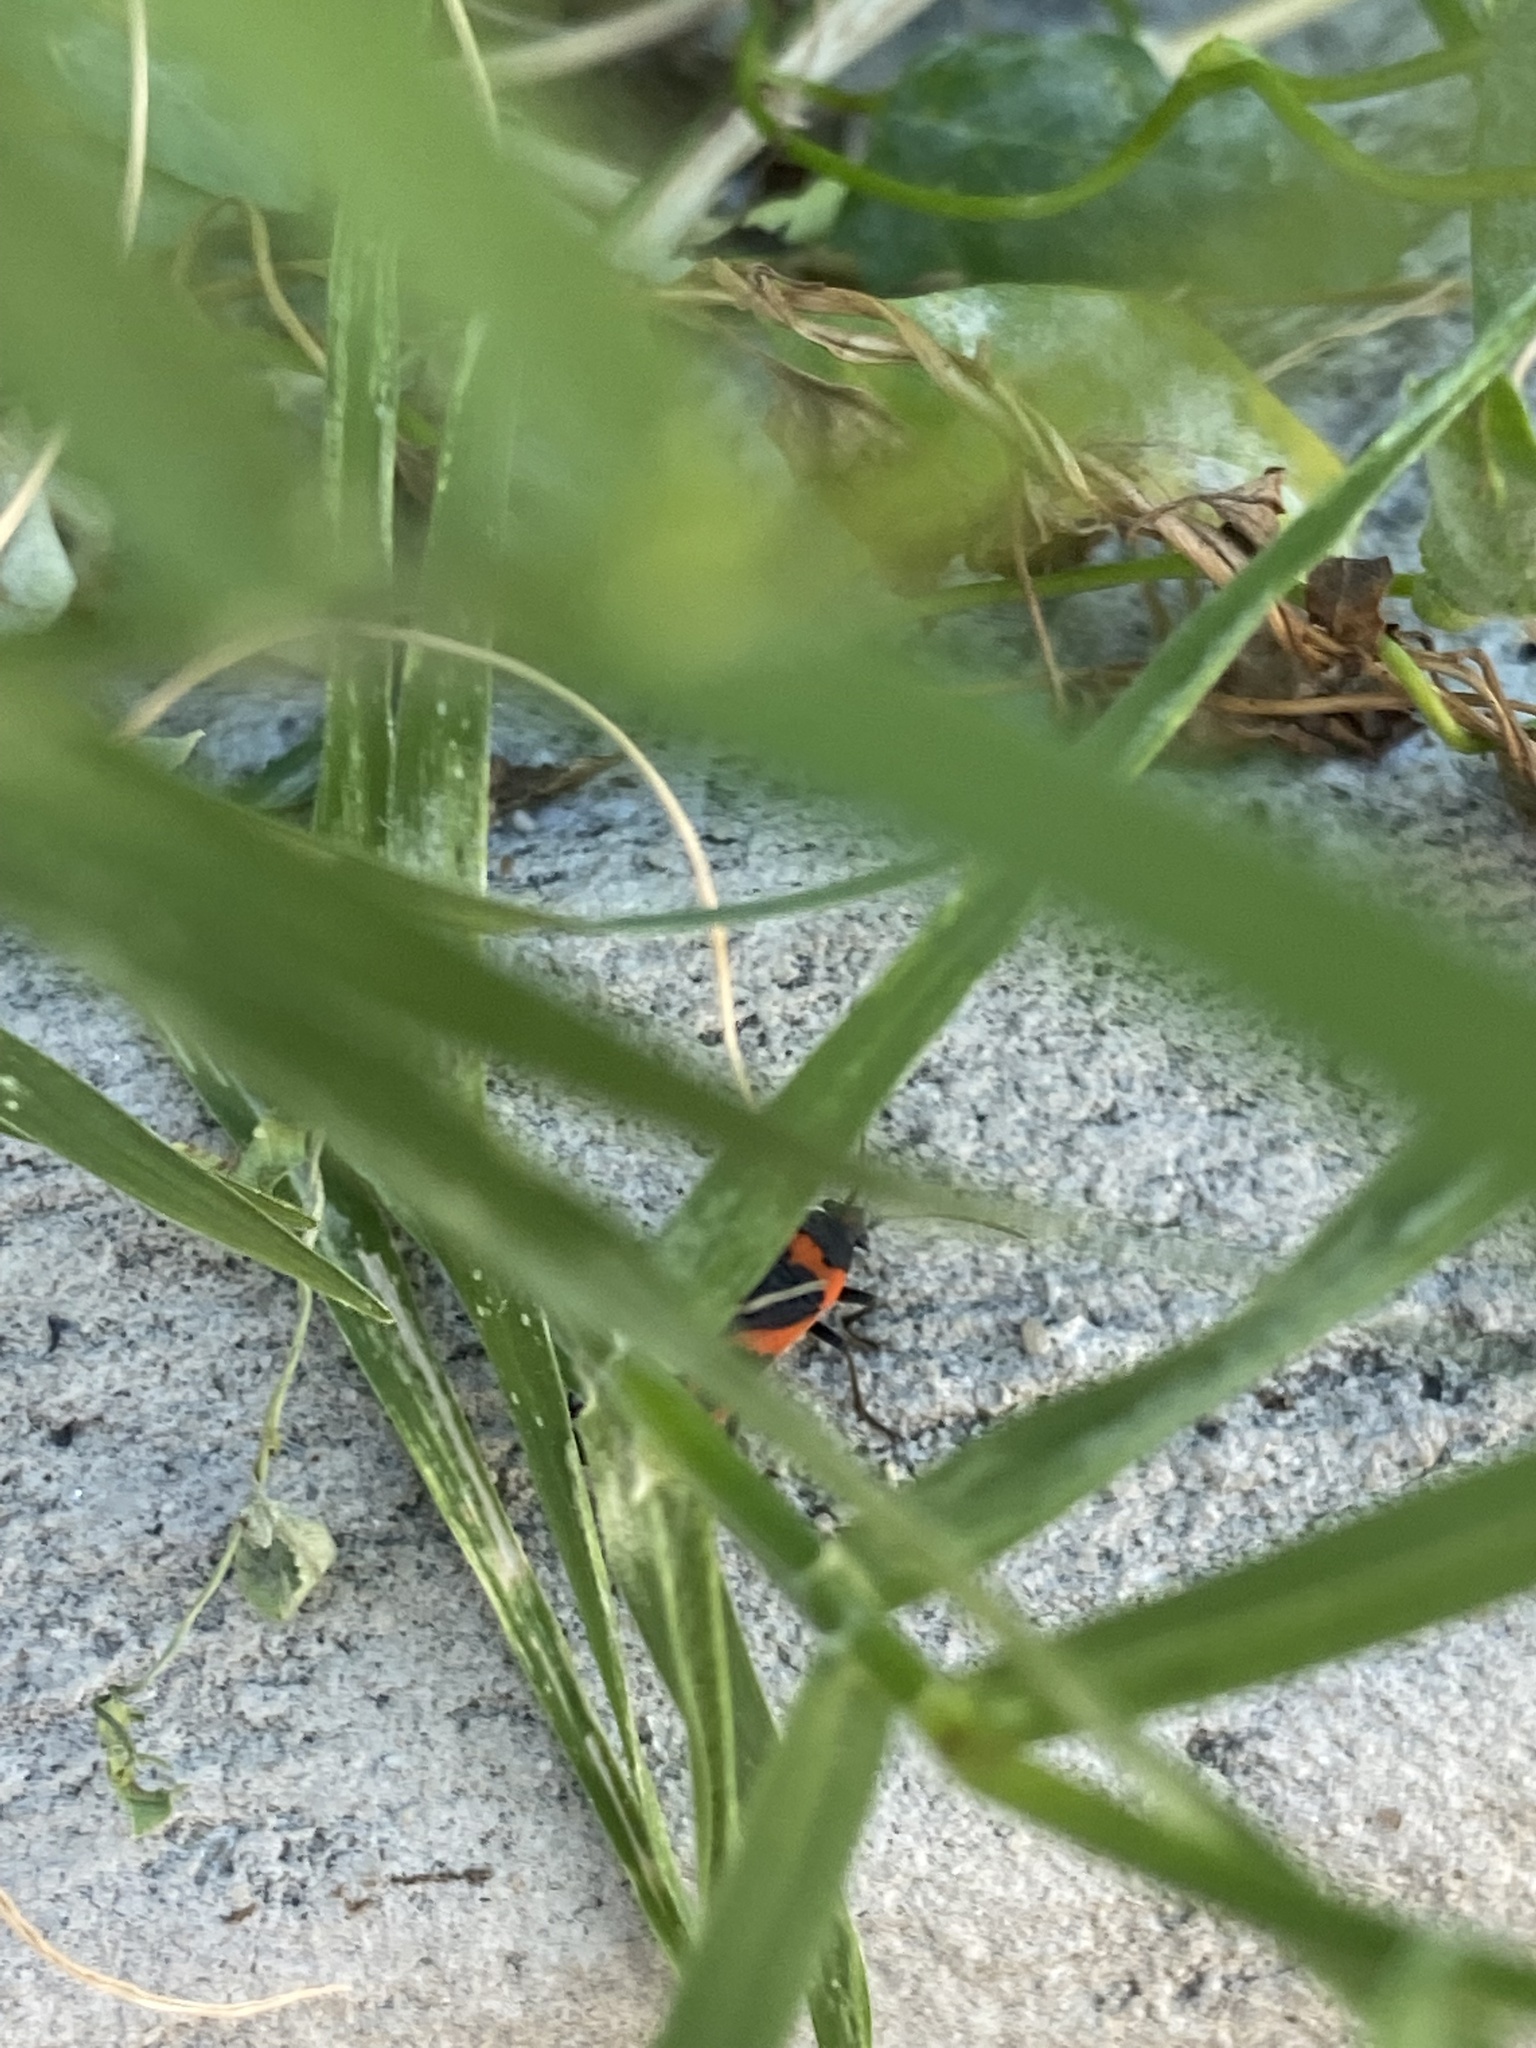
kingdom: Animalia
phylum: Arthropoda
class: Insecta
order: Hemiptera
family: Lygaeidae
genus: Lygaeus
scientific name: Lygaeus kalmii
